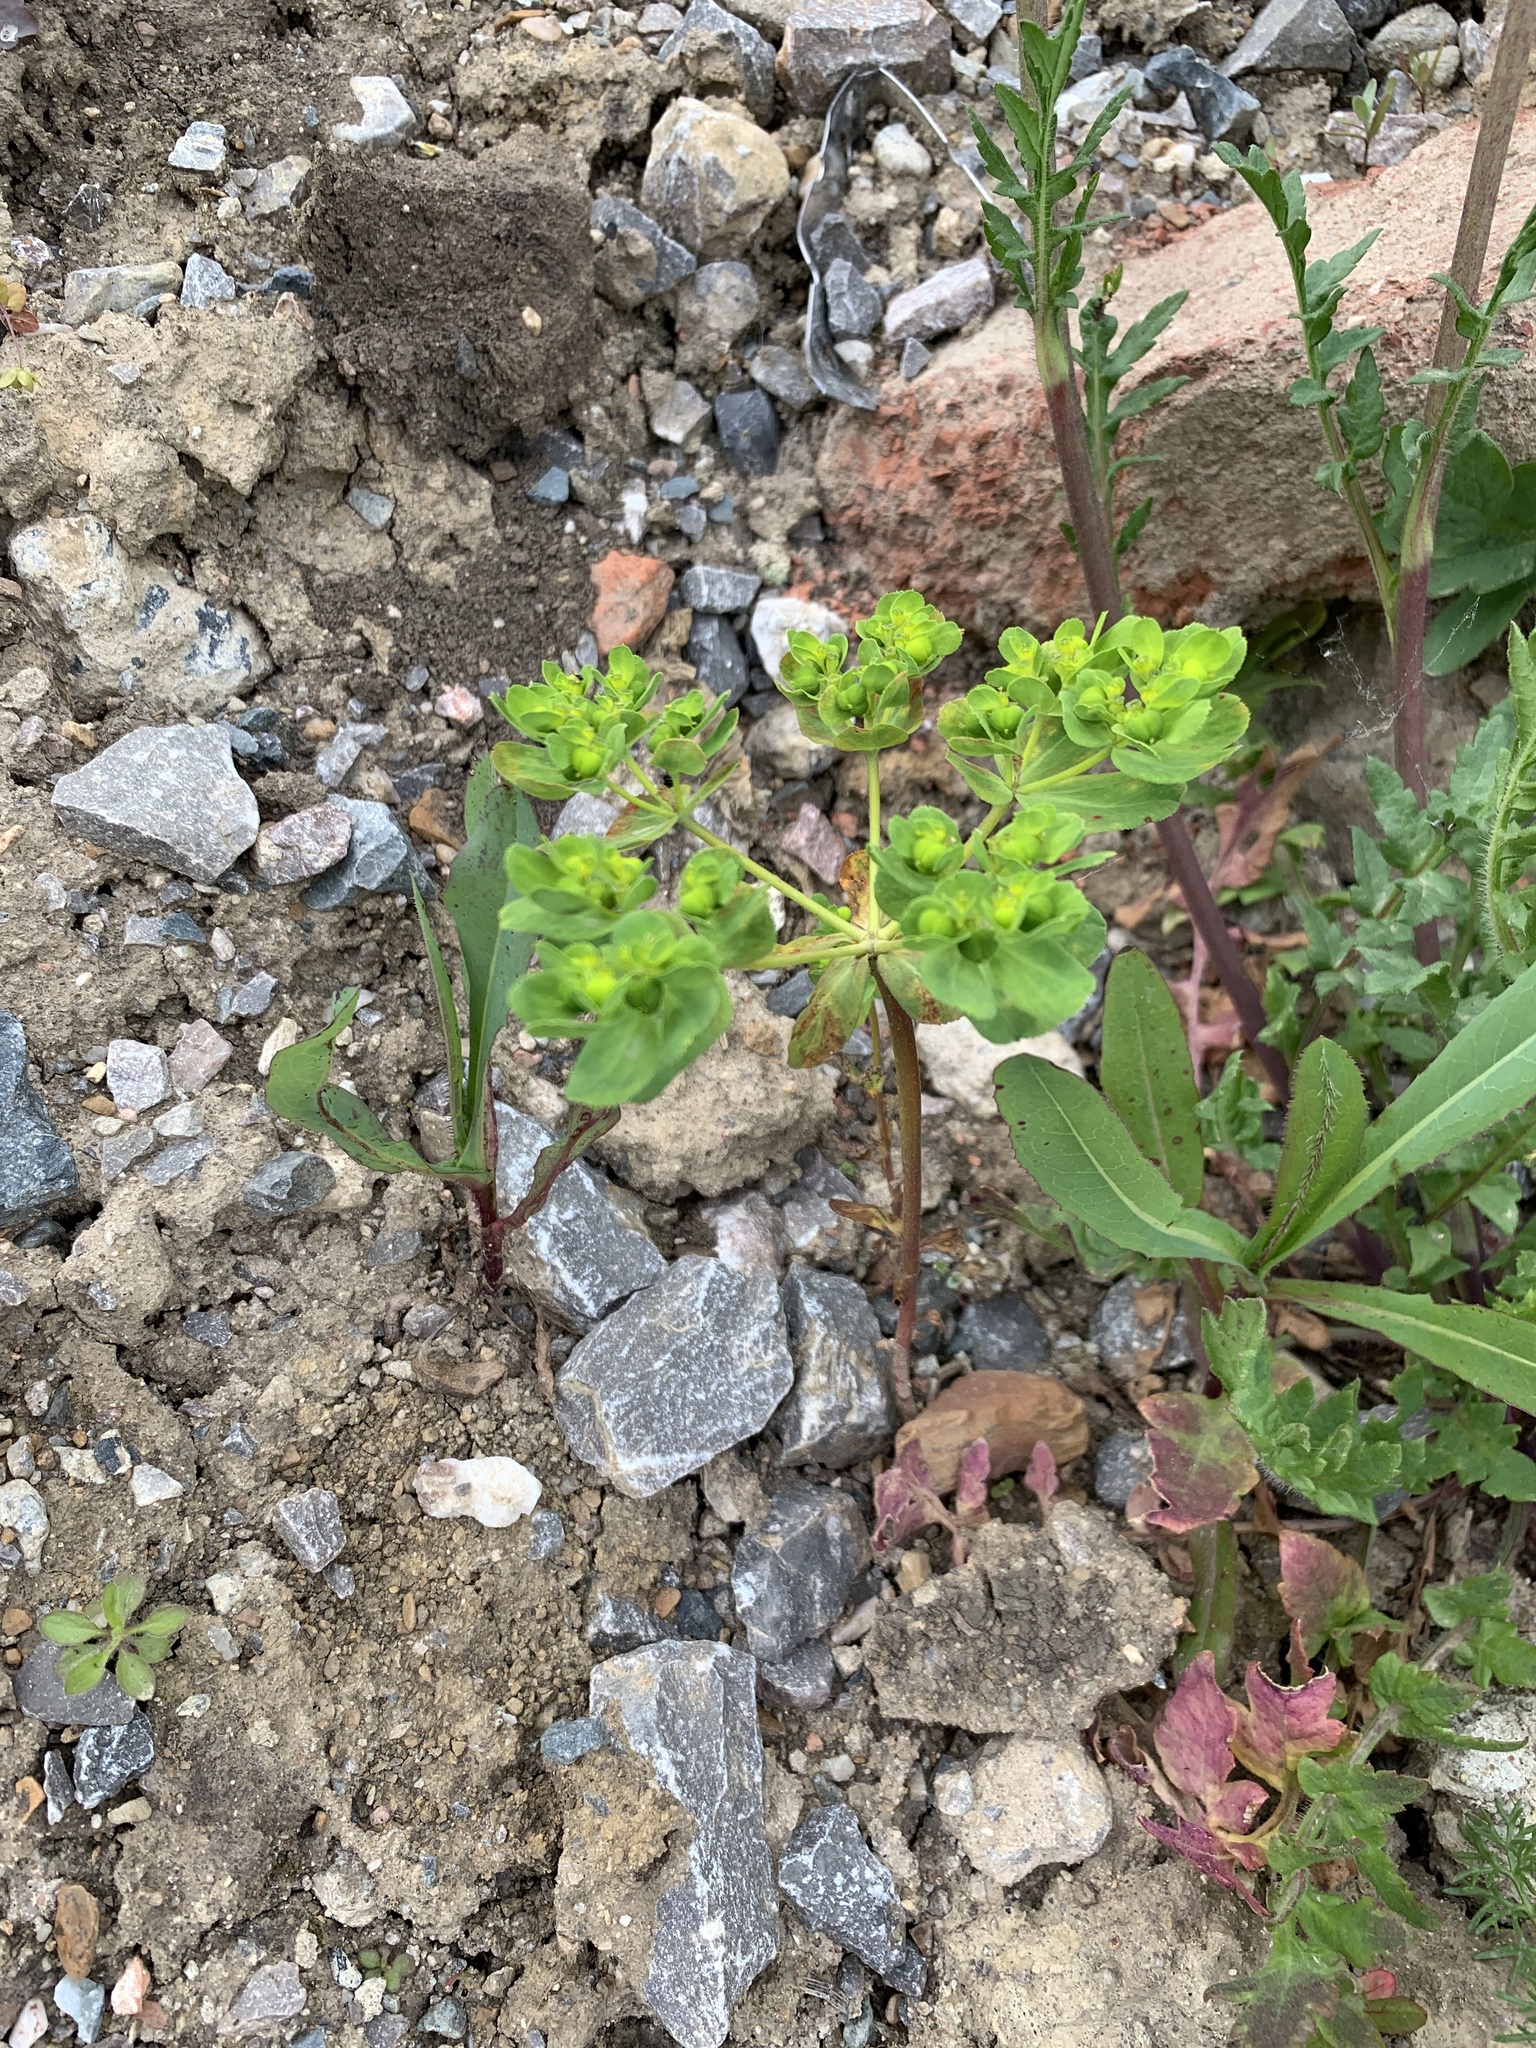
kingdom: Plantae
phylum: Tracheophyta
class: Magnoliopsida
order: Malpighiales
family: Euphorbiaceae
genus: Euphorbia
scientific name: Euphorbia helioscopia
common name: Sun spurge
